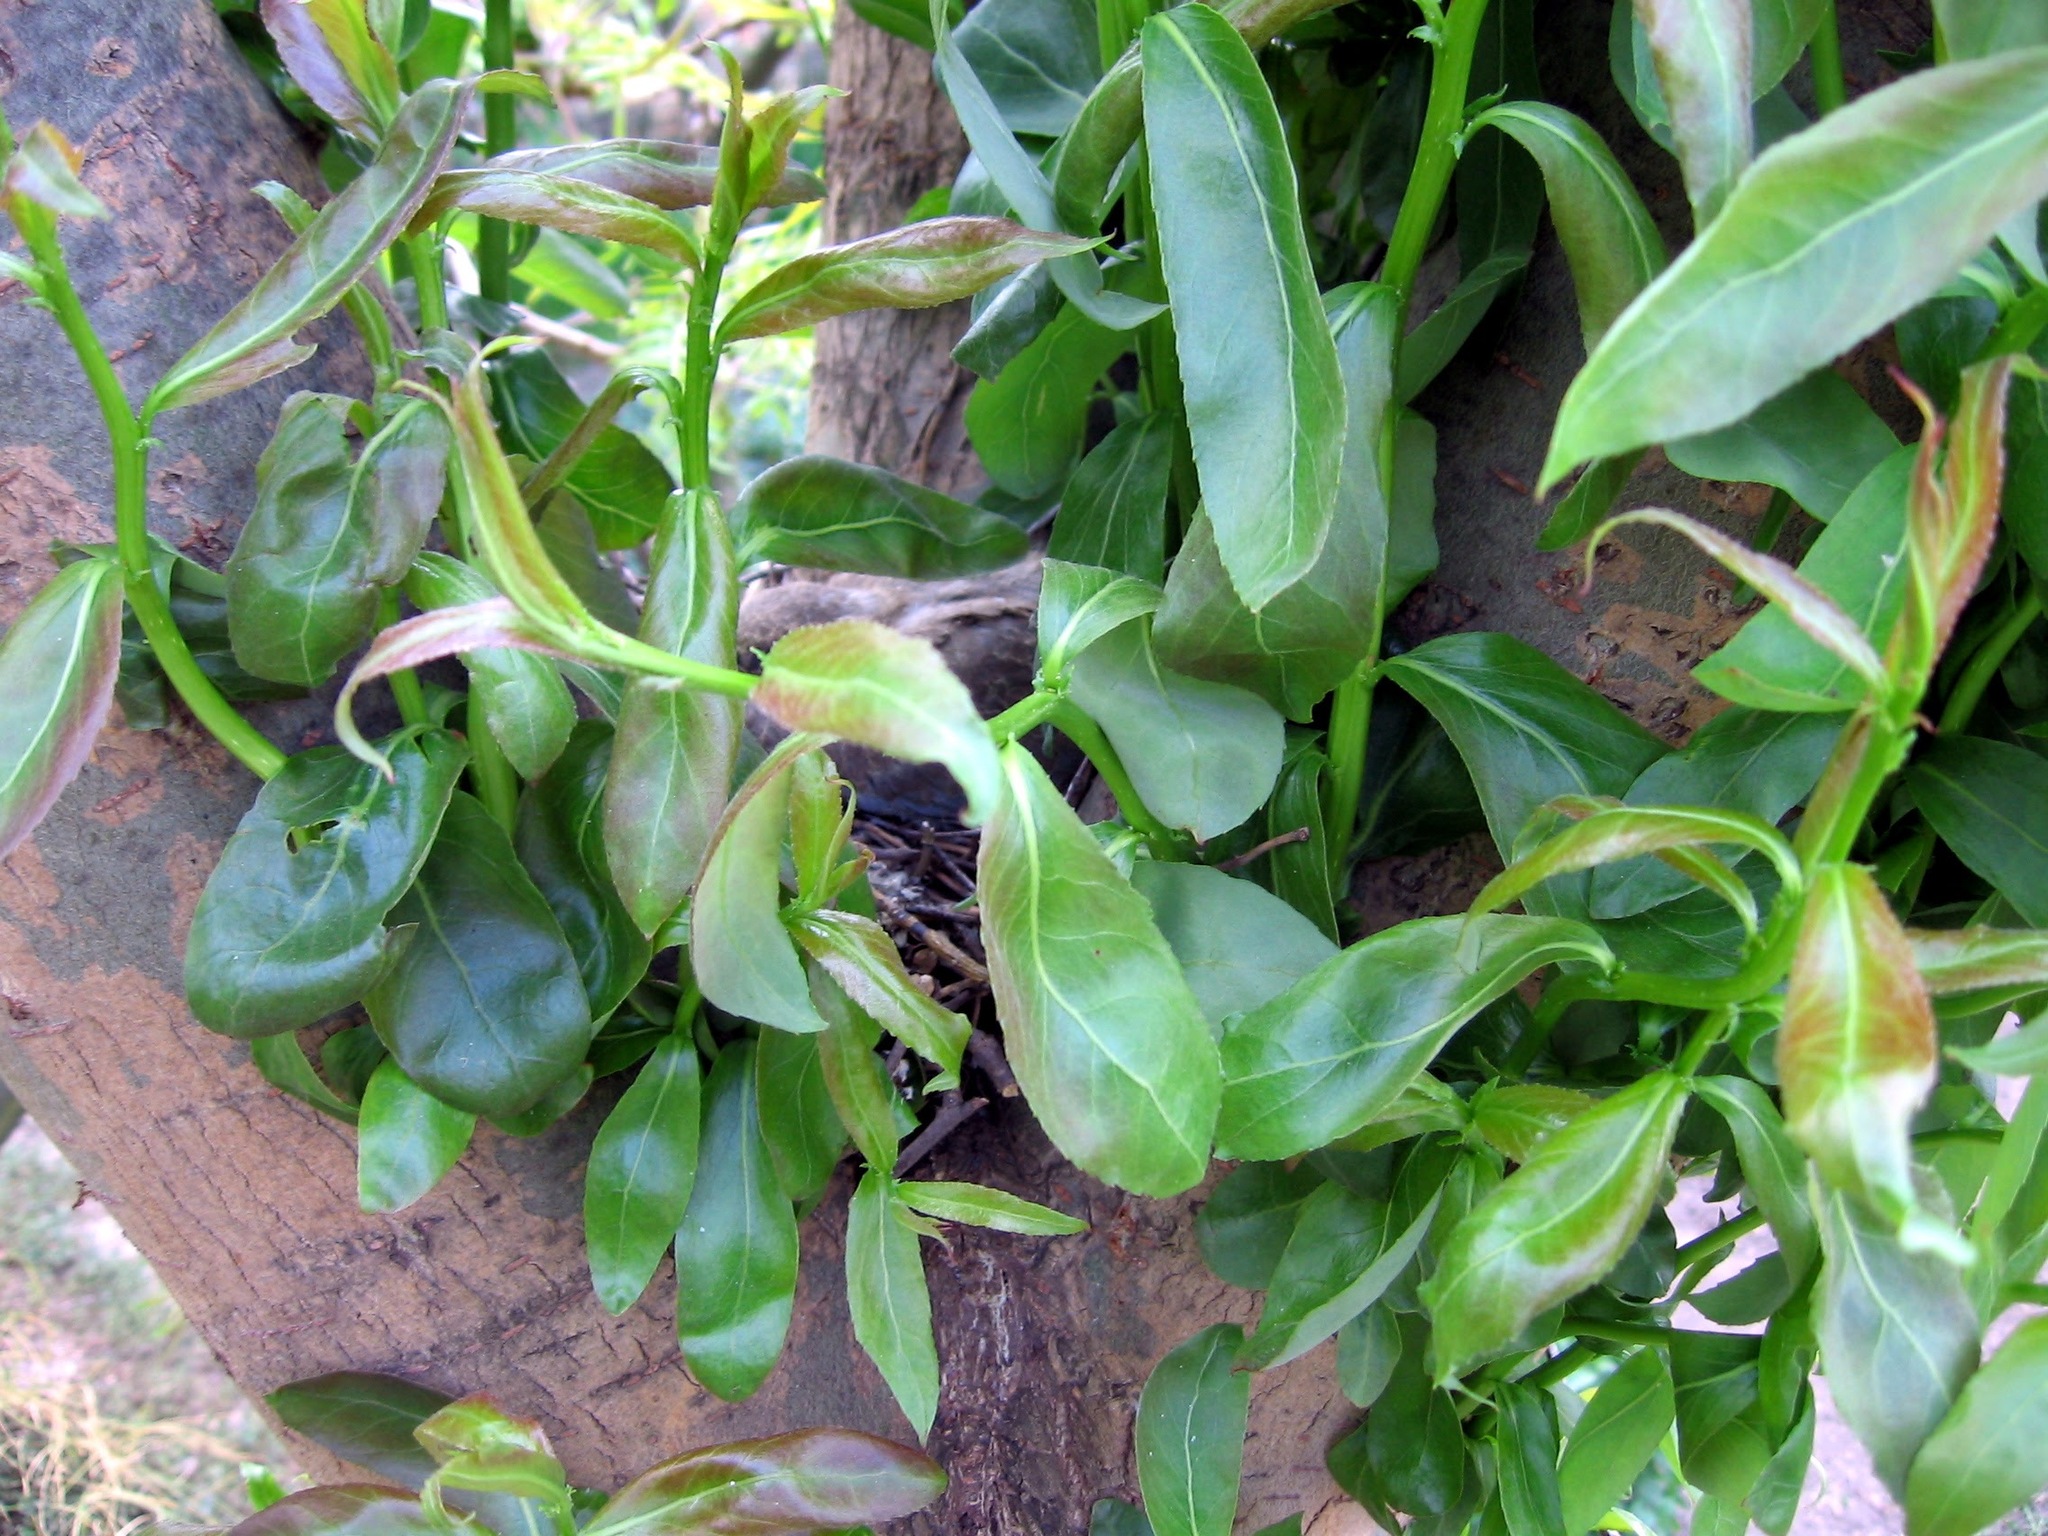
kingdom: Animalia
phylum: Chordata
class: Aves
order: Columbiformes
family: Columbidae
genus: Streptopelia
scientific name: Streptopelia decaocto
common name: Eurasian collared dove
